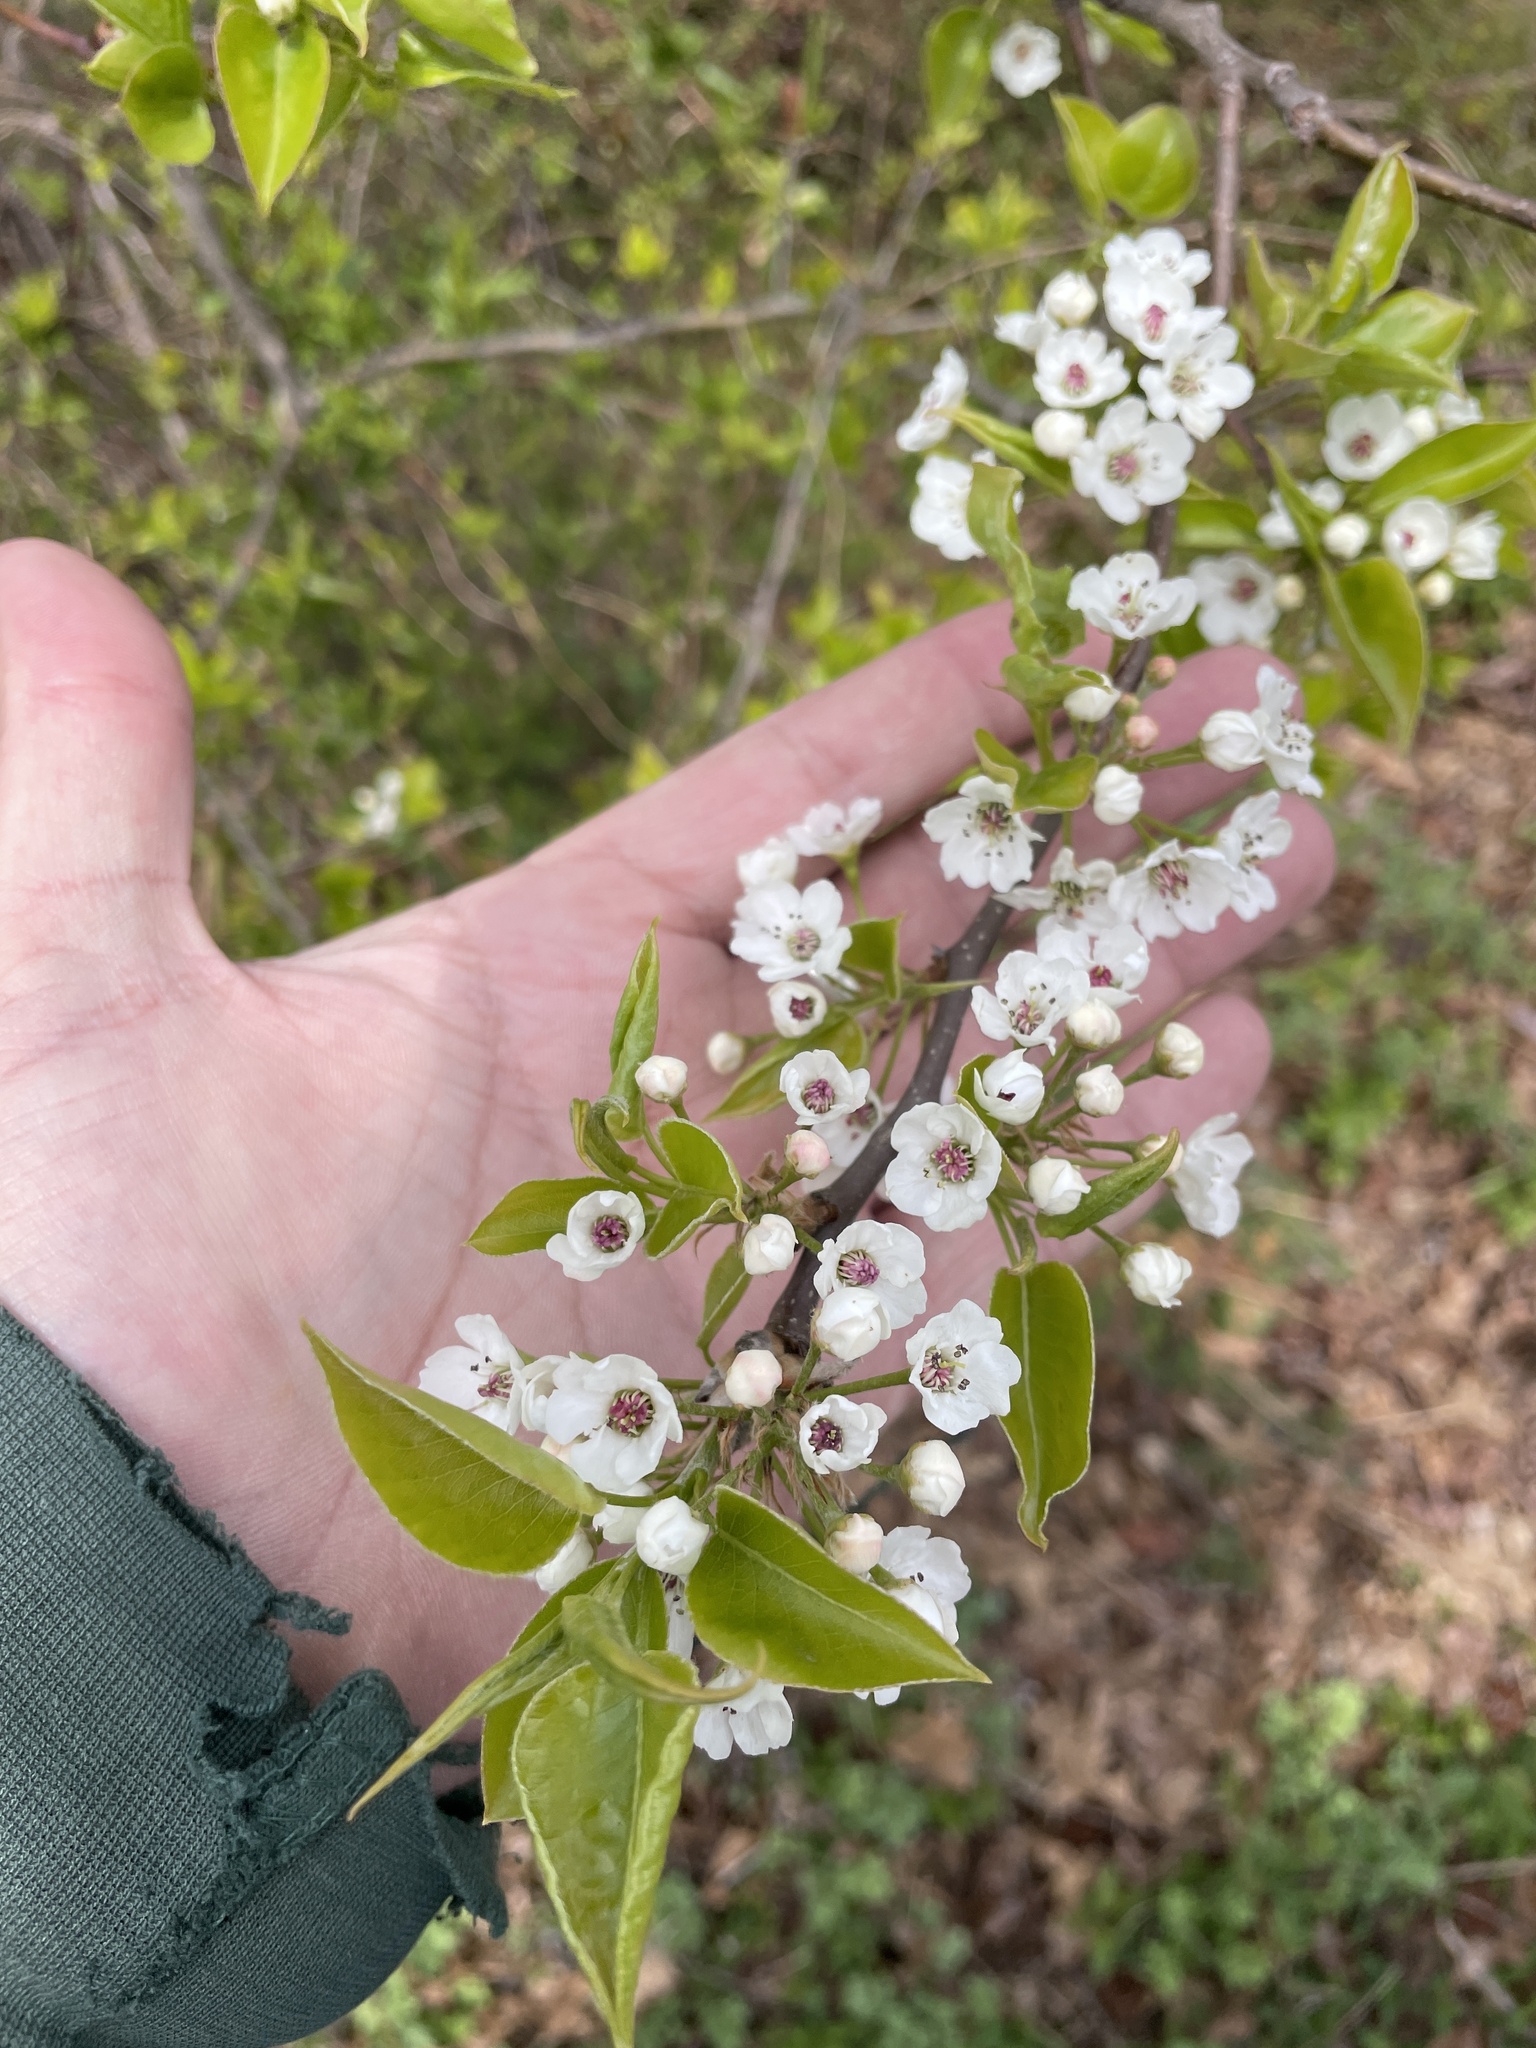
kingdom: Plantae
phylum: Tracheophyta
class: Magnoliopsida
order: Rosales
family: Rosaceae
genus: Pyrus
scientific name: Pyrus calleryana
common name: Callery pear
